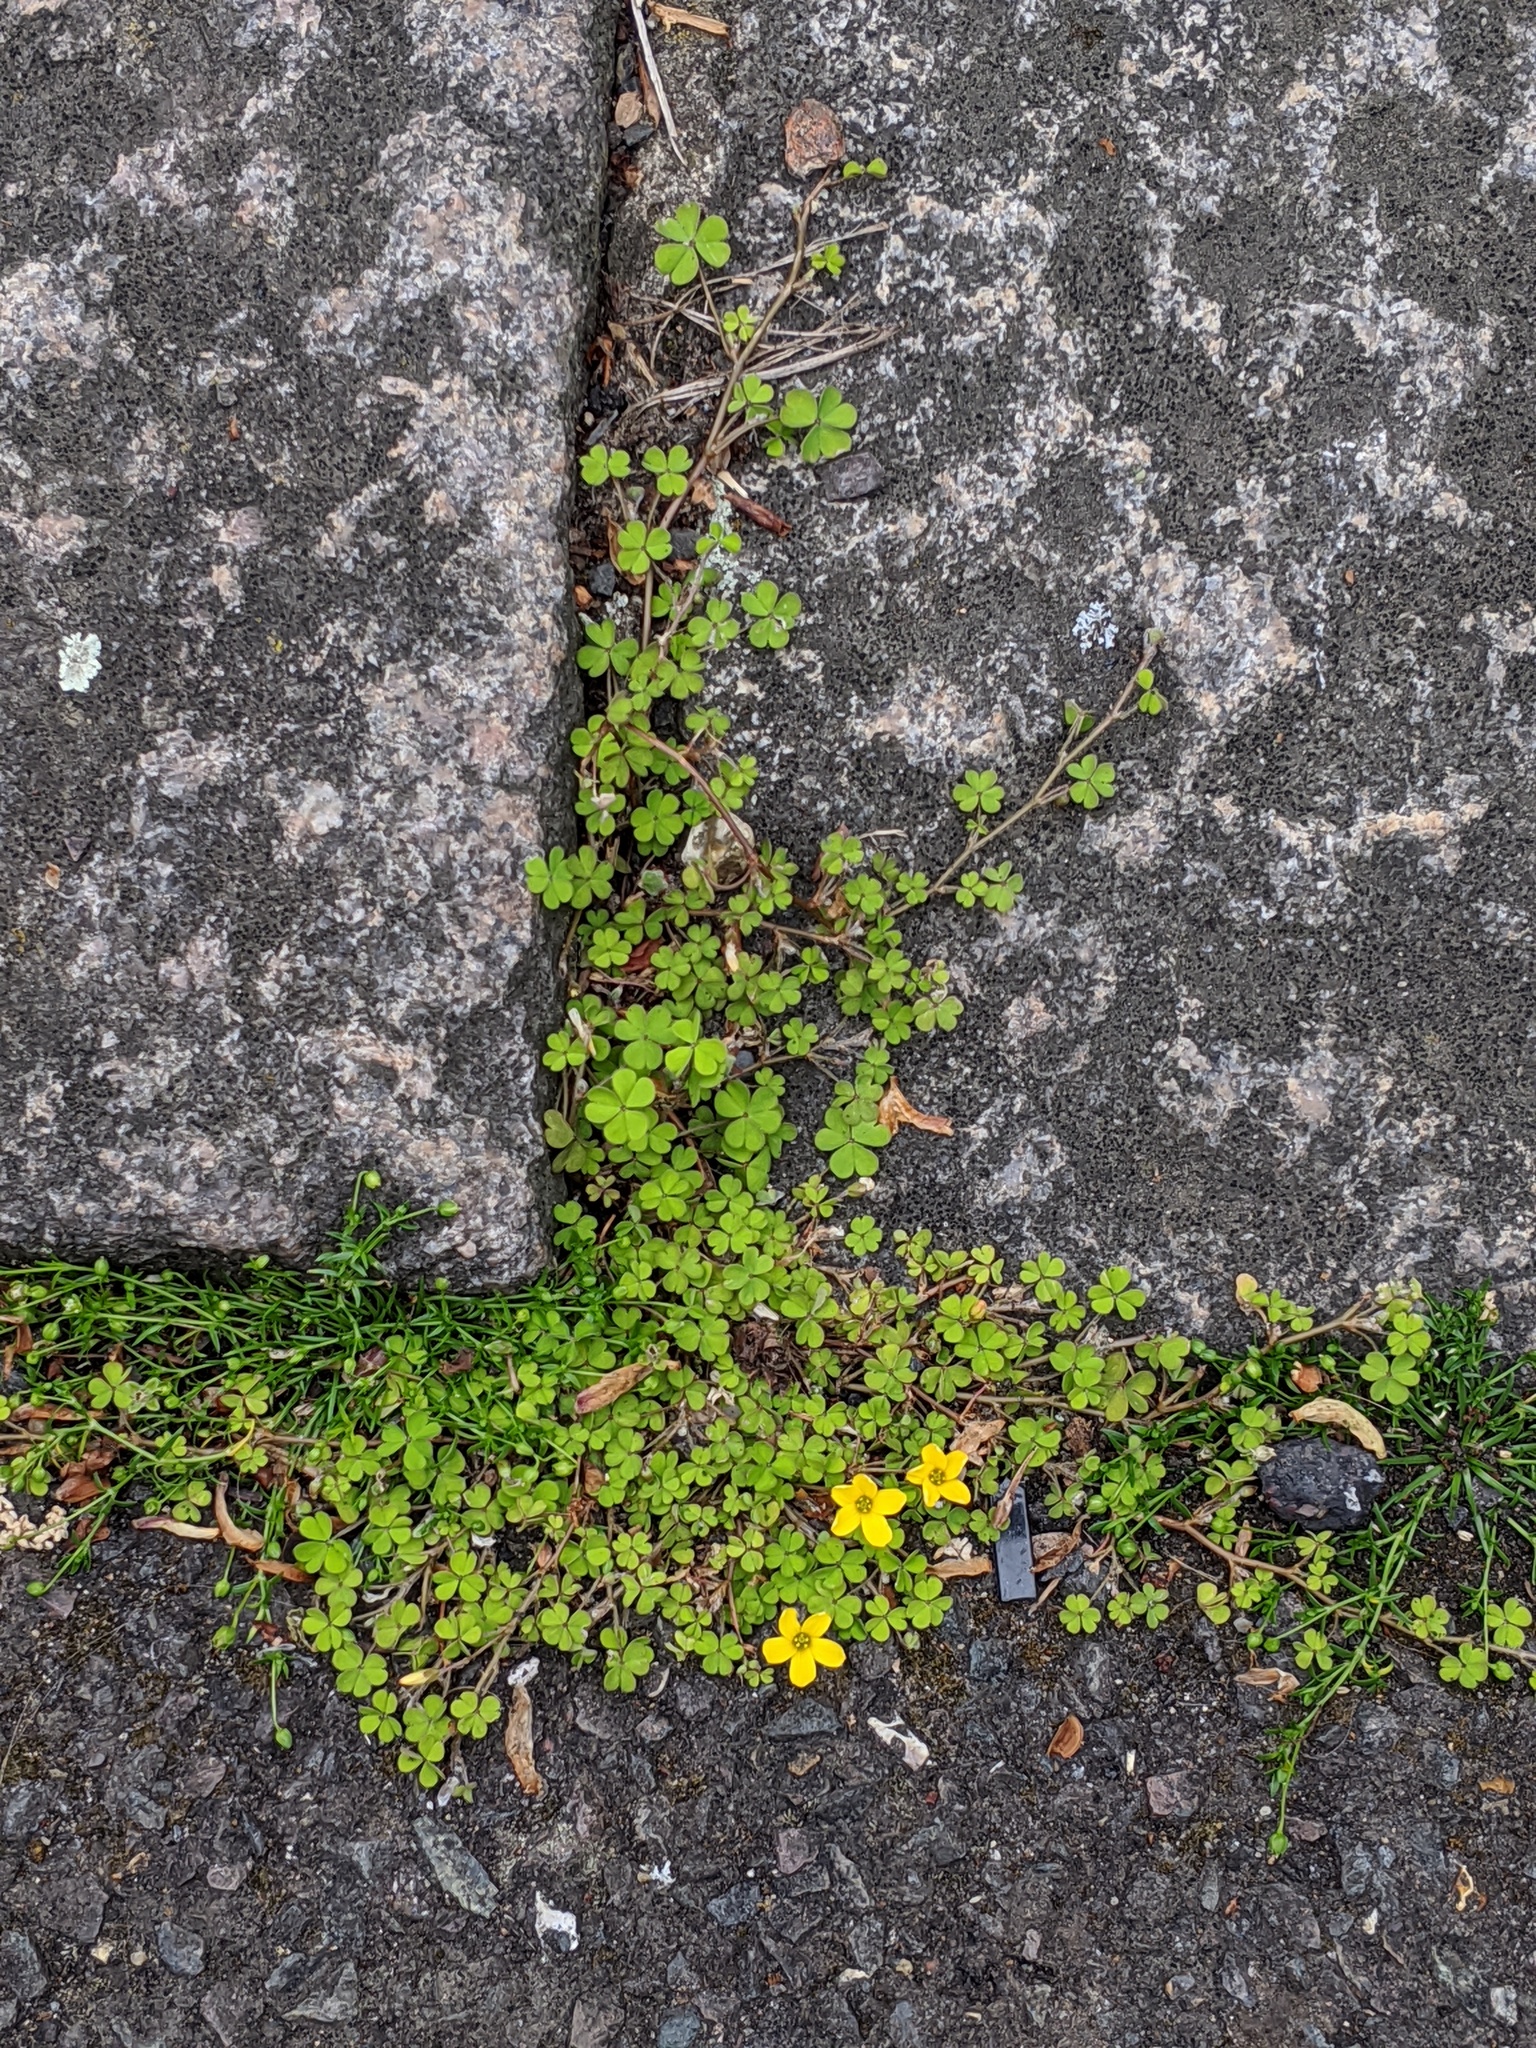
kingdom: Plantae
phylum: Tracheophyta
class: Magnoliopsida
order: Oxalidales
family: Oxalidaceae
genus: Oxalis
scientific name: Oxalis exilis
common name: Least yellow-sorrel
